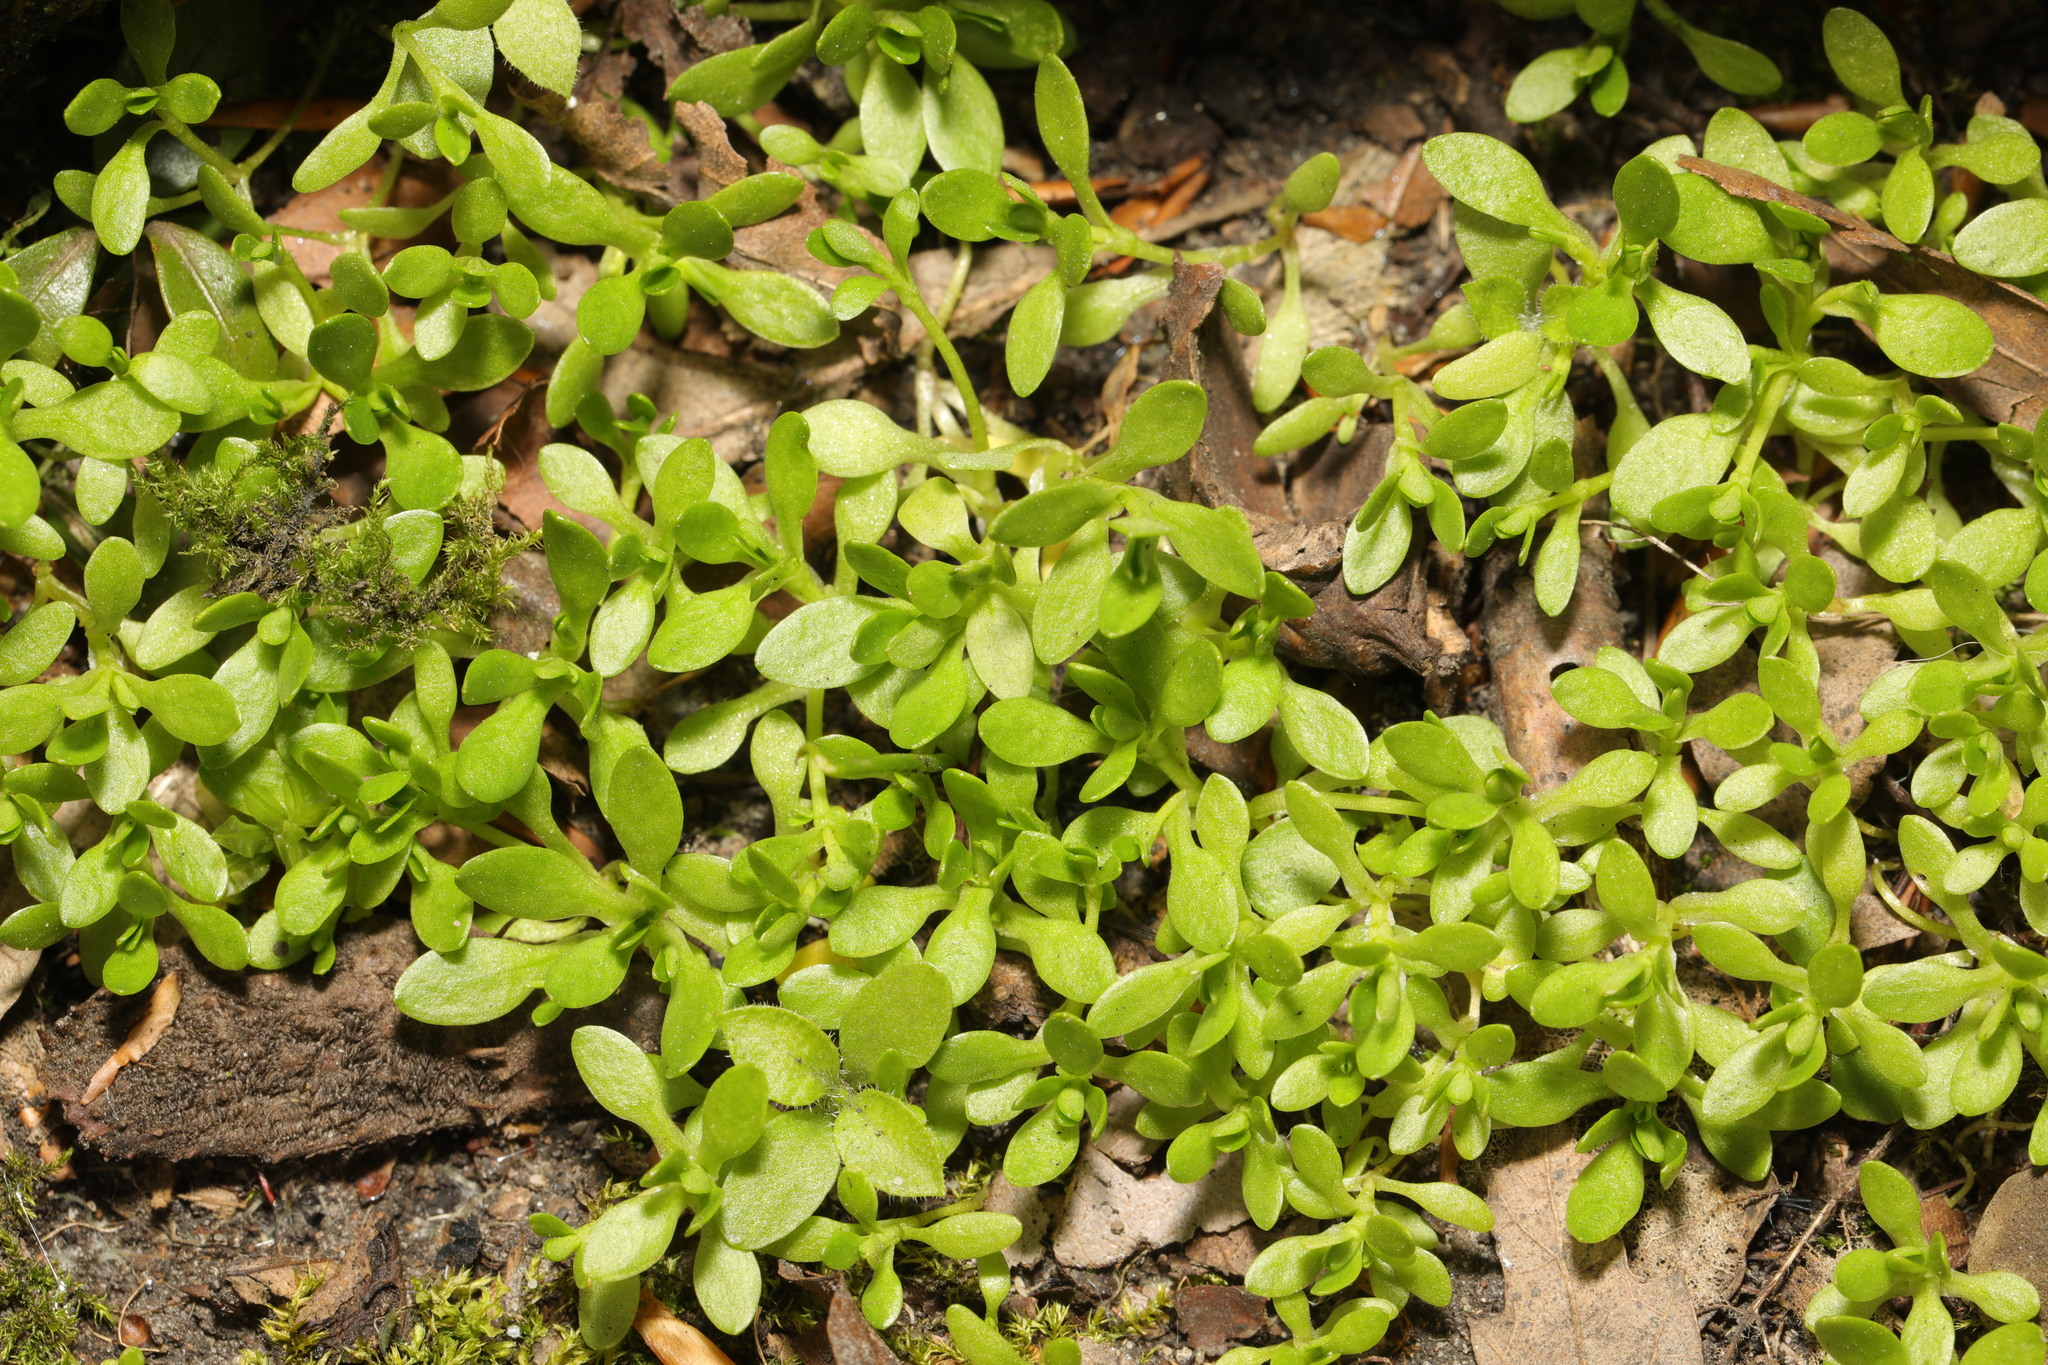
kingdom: Plantae
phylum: Tracheophyta
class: Magnoliopsida
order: Caryophyllales
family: Montiaceae
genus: Montia
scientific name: Montia fontana
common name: Blinks
